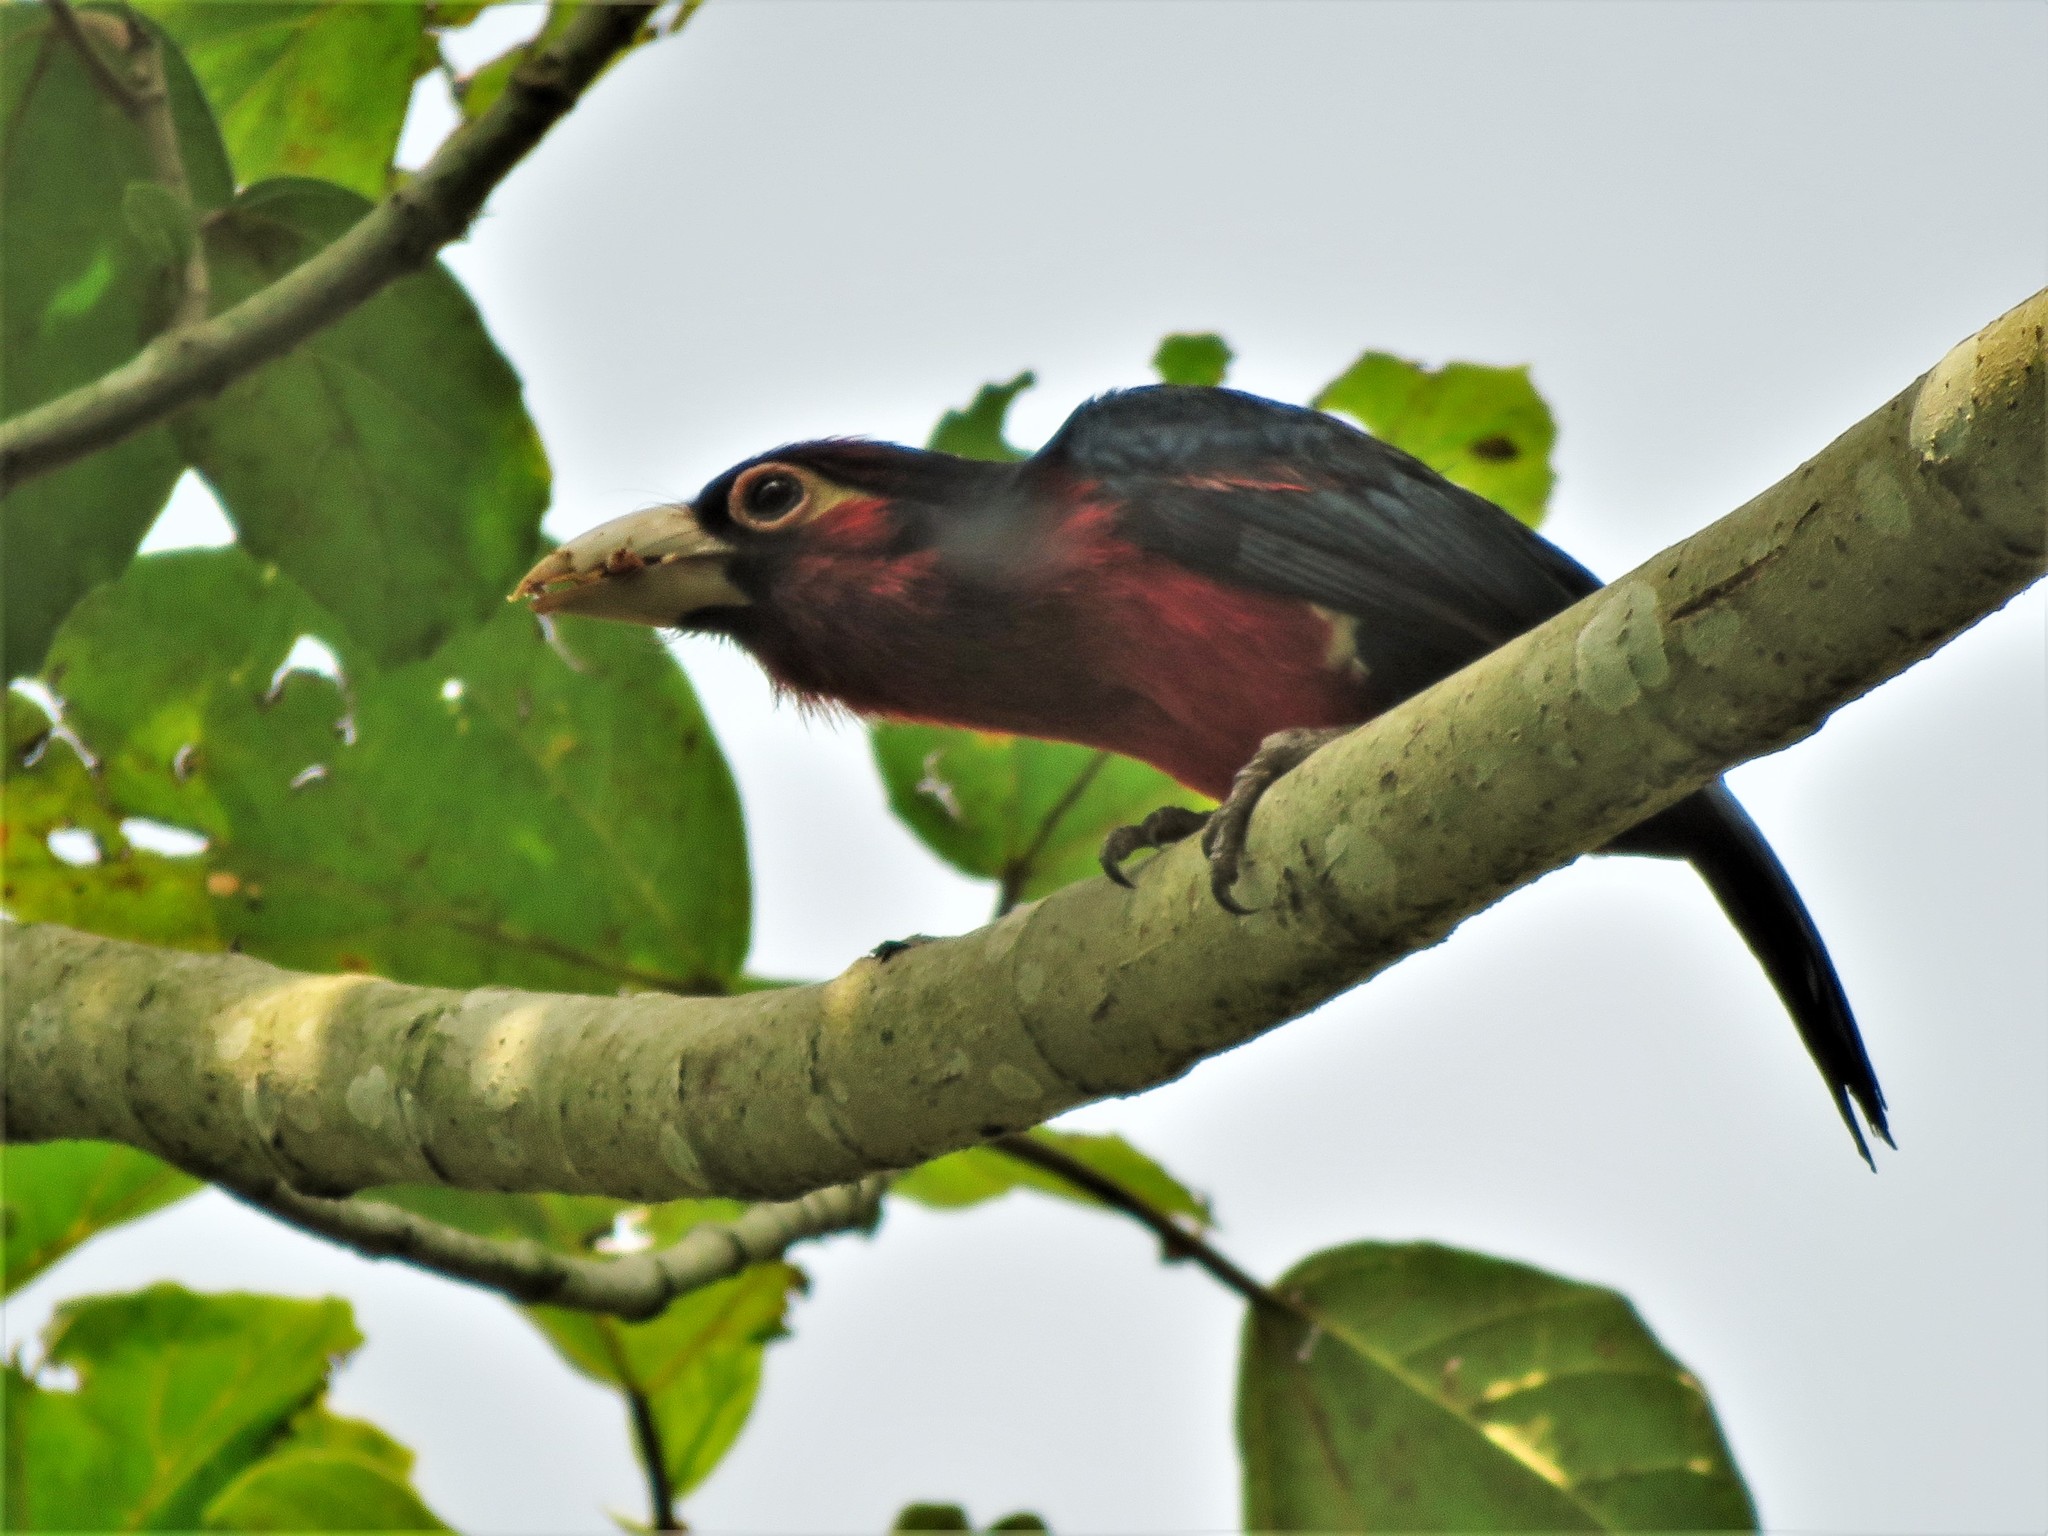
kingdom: Animalia
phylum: Chordata
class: Aves
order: Piciformes
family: Lybiidae
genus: Lybius
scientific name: Lybius bidentatus
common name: Double-toothed barbet
